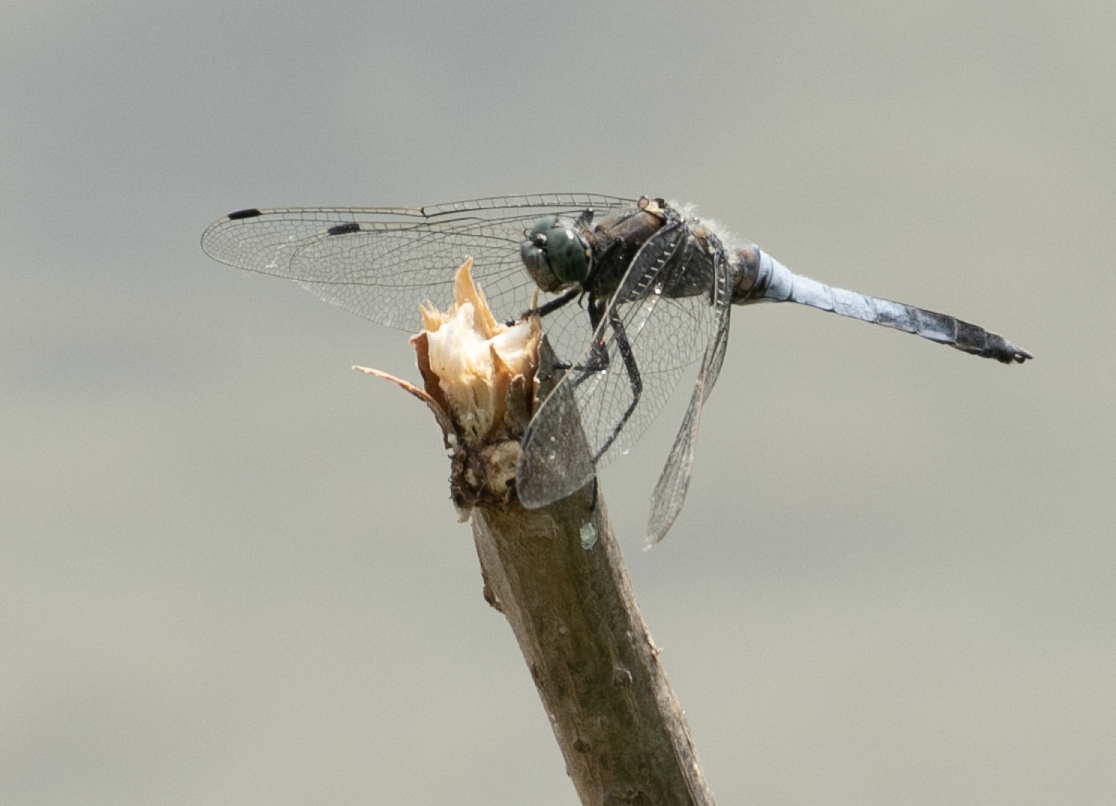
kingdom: Animalia
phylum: Arthropoda
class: Insecta
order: Odonata
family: Libellulidae
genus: Orthetrum
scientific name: Orthetrum cancellatum
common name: Black-tailed skimmer
